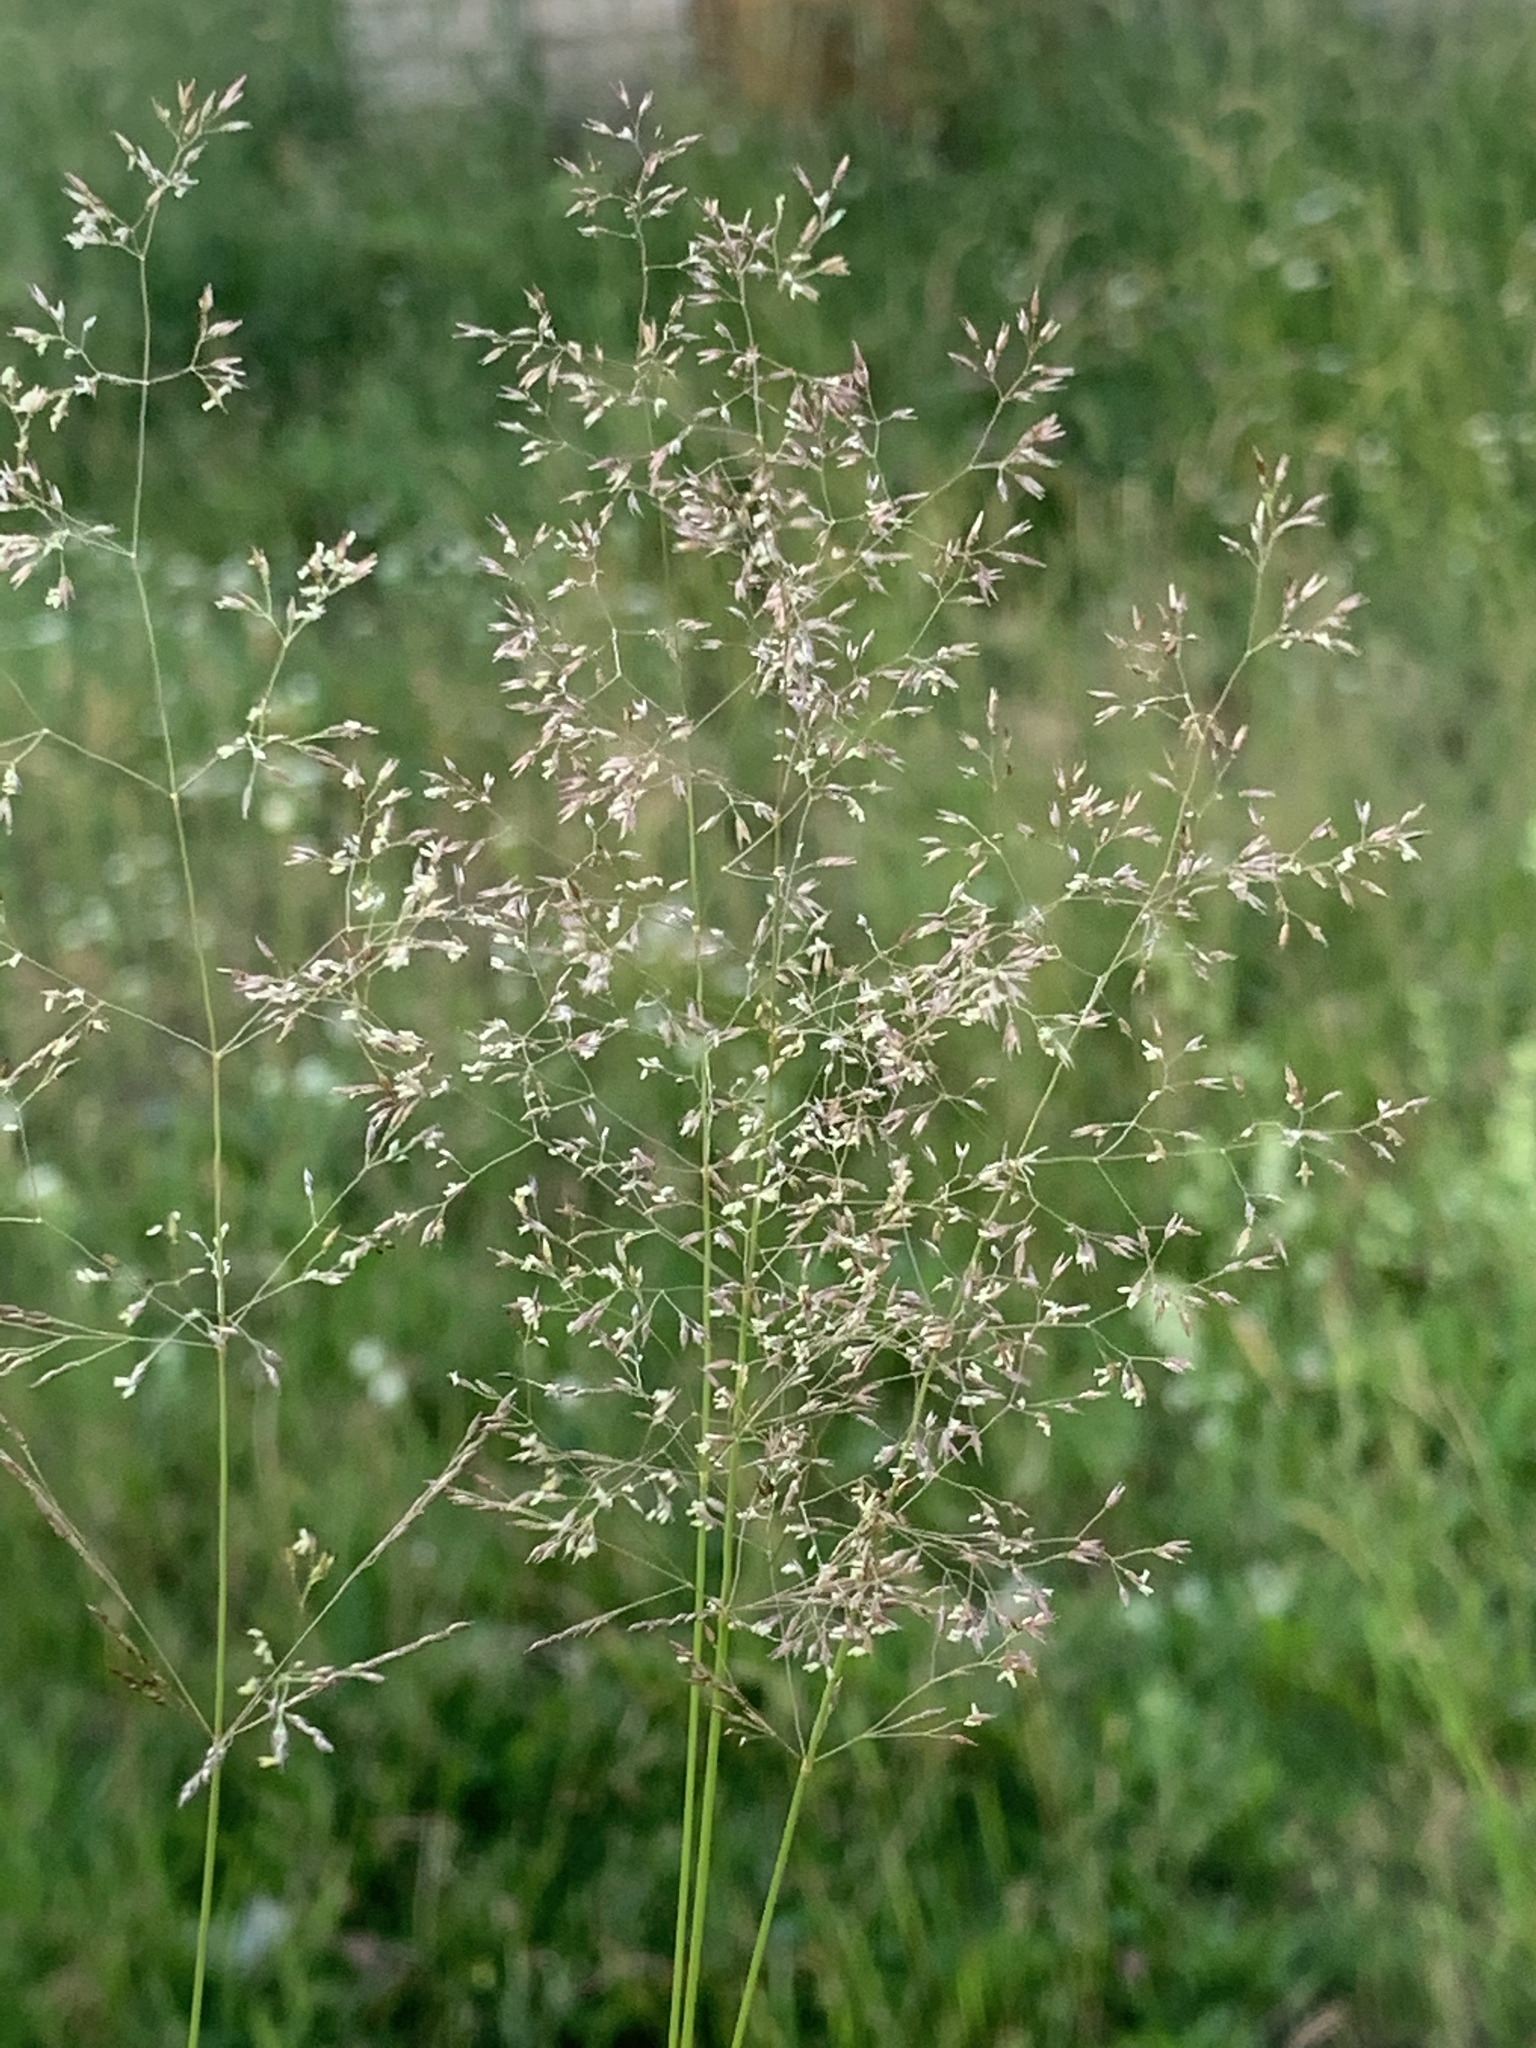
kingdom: Plantae
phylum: Tracheophyta
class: Liliopsida
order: Poales
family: Poaceae
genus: Agrostis
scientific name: Agrostis capillaris
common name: Colonial bentgrass
